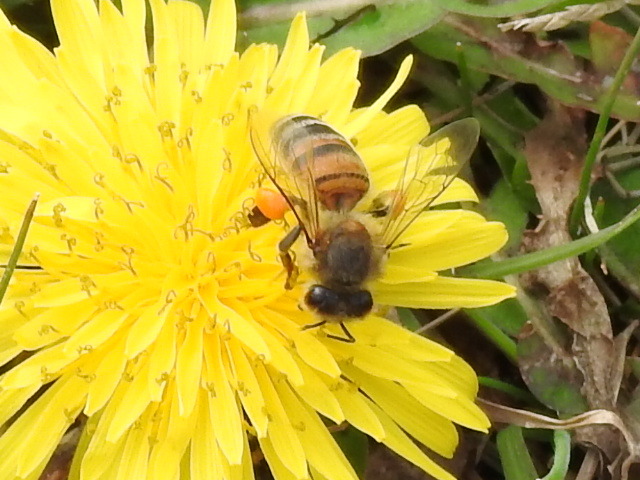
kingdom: Animalia
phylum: Arthropoda
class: Insecta
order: Hymenoptera
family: Apidae
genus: Apis
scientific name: Apis mellifera
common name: Honey bee
